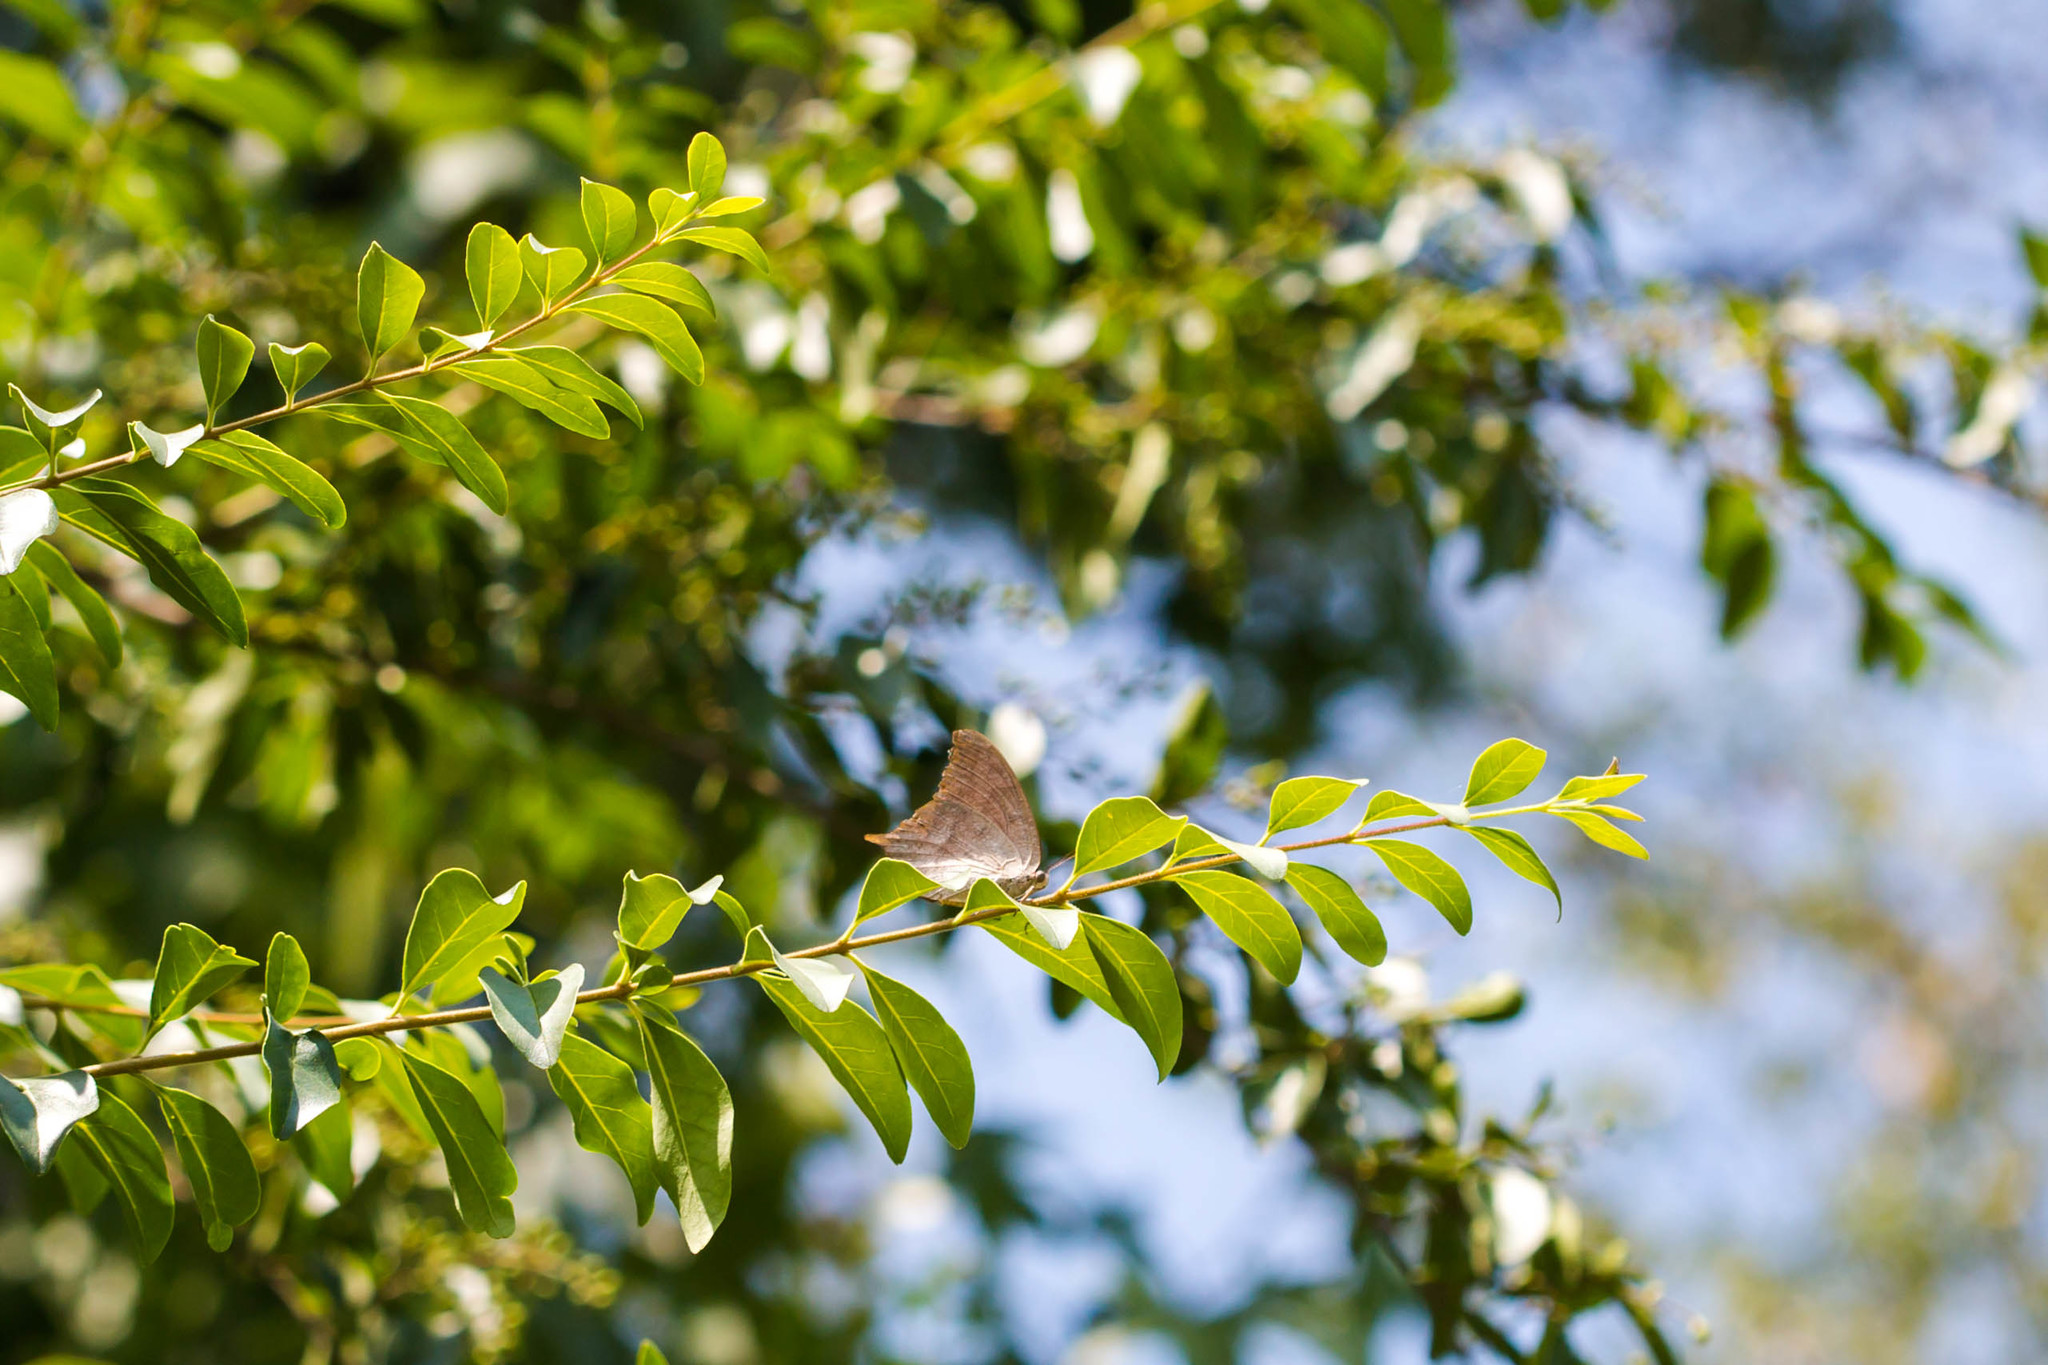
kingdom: Animalia
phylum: Arthropoda
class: Insecta
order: Lepidoptera
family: Nymphalidae
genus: Anaea
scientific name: Anaea andria
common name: Goatweed leafwing
